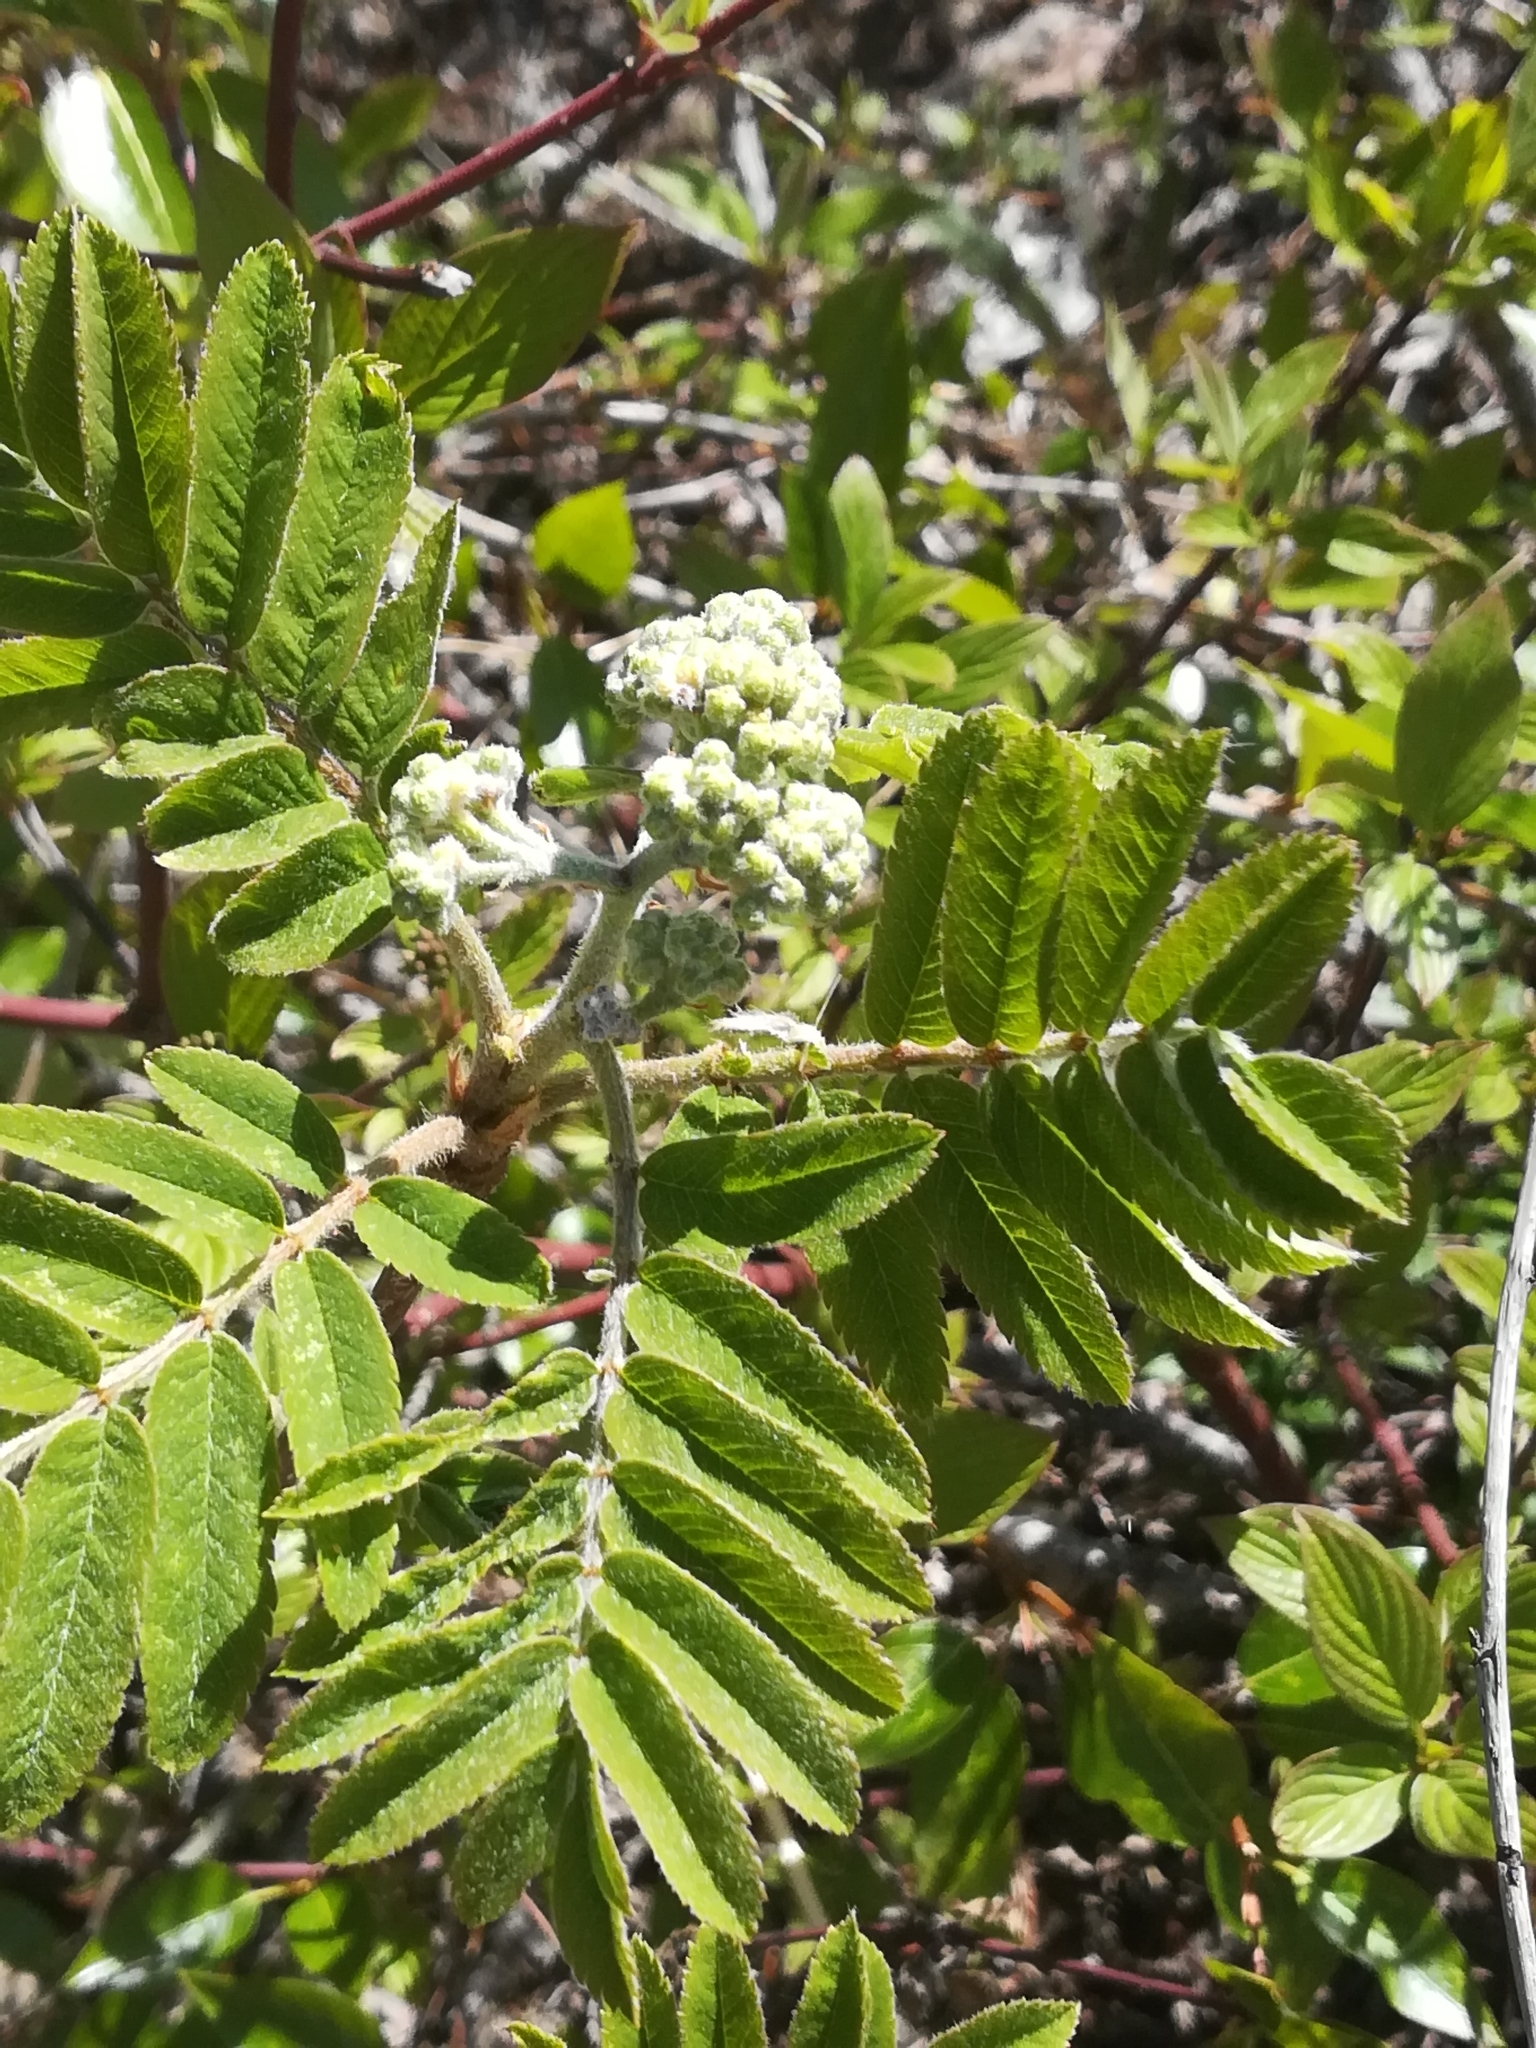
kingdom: Plantae
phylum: Tracheophyta
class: Magnoliopsida
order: Rosales
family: Rosaceae
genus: Sorbus
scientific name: Sorbus aucuparia
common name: Rowan
